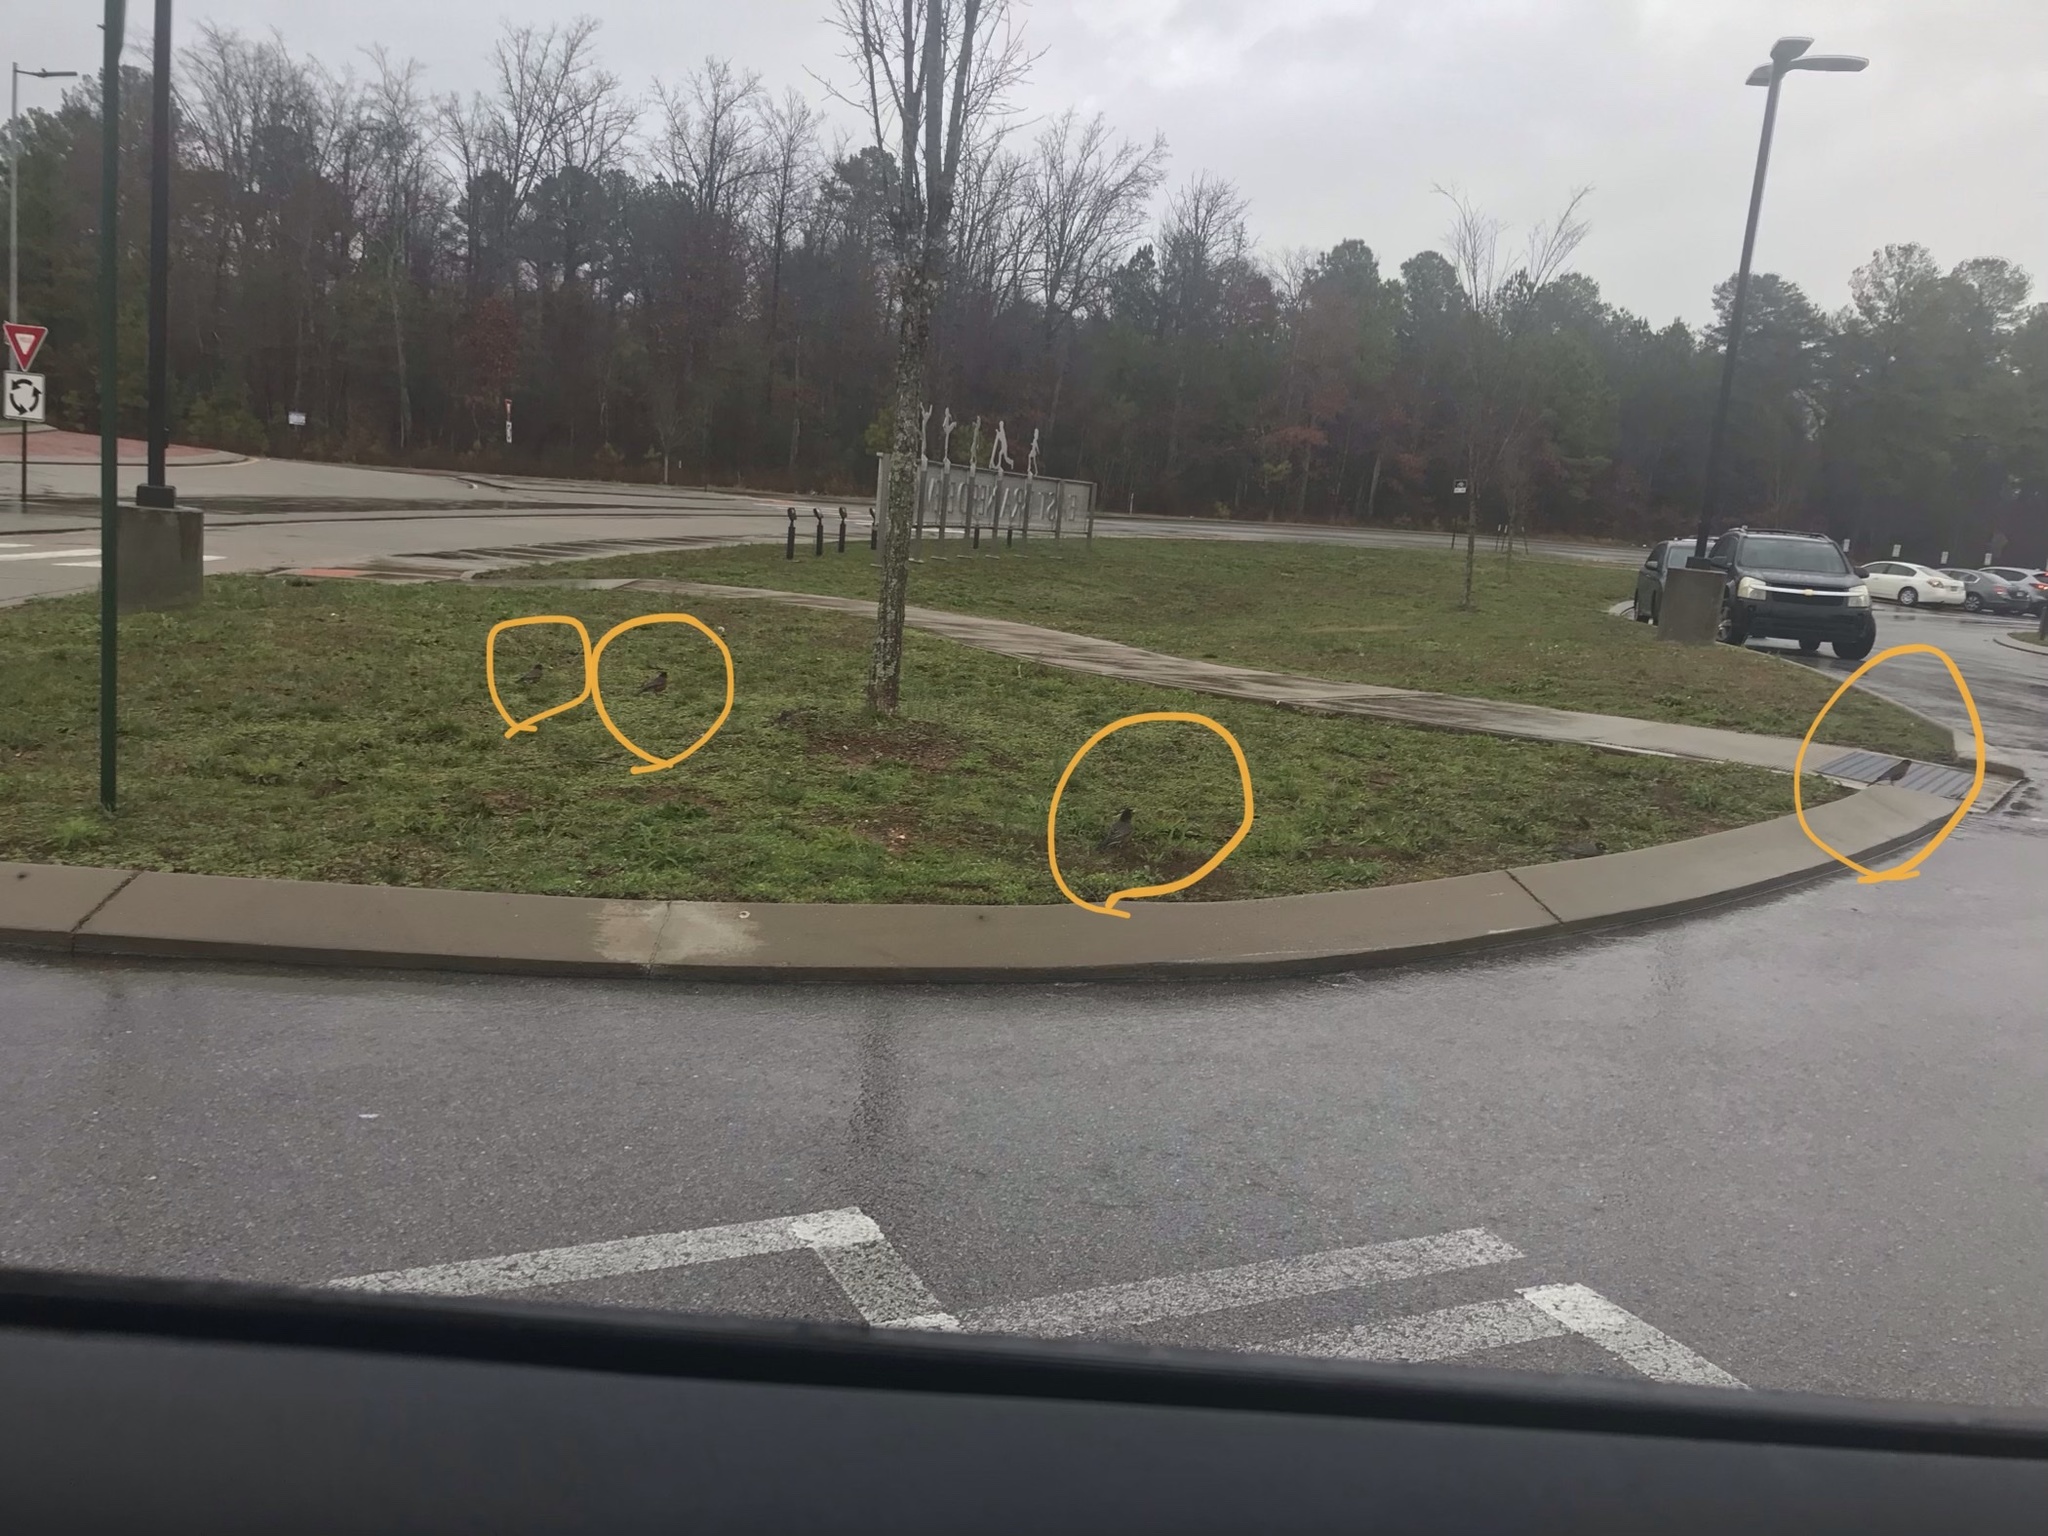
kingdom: Animalia
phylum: Chordata
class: Aves
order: Passeriformes
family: Turdidae
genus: Turdus
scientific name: Turdus migratorius
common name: American robin
